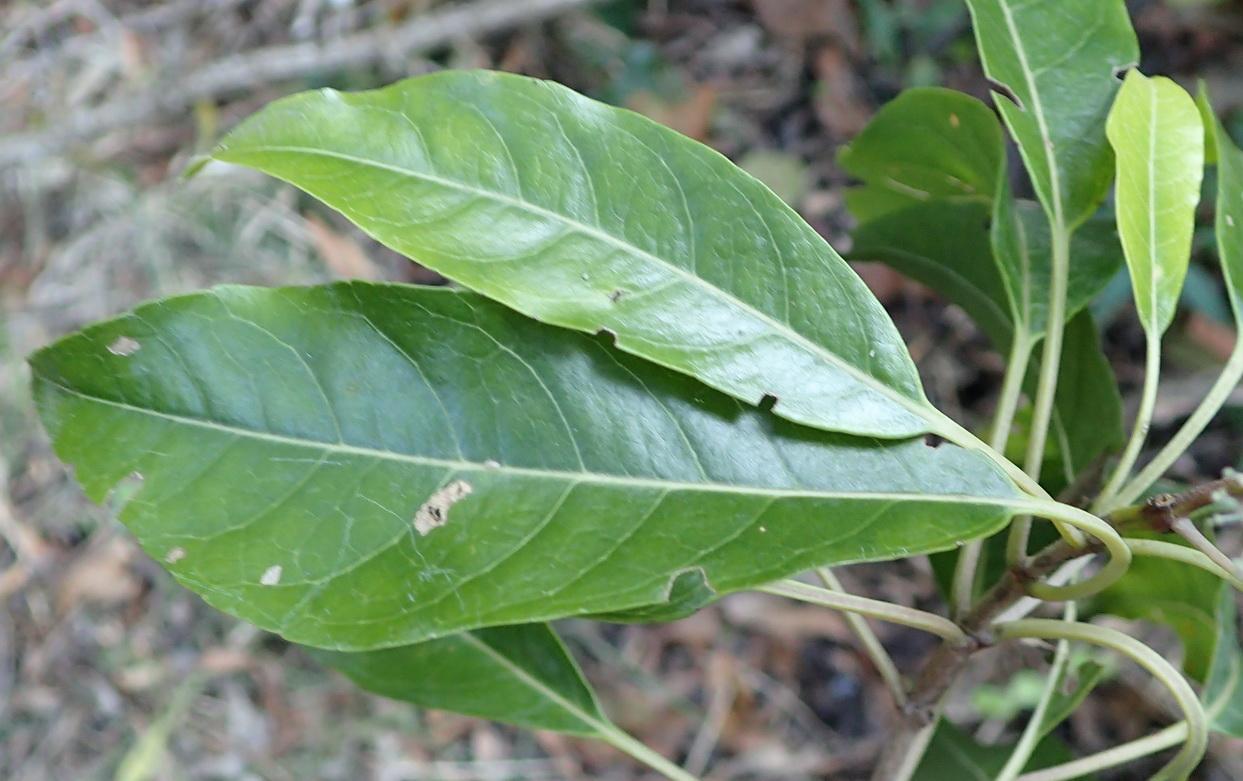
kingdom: Plantae
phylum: Tracheophyta
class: Magnoliopsida
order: Lamiales
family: Stilbaceae
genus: Nuxia
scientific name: Nuxia floribunda
